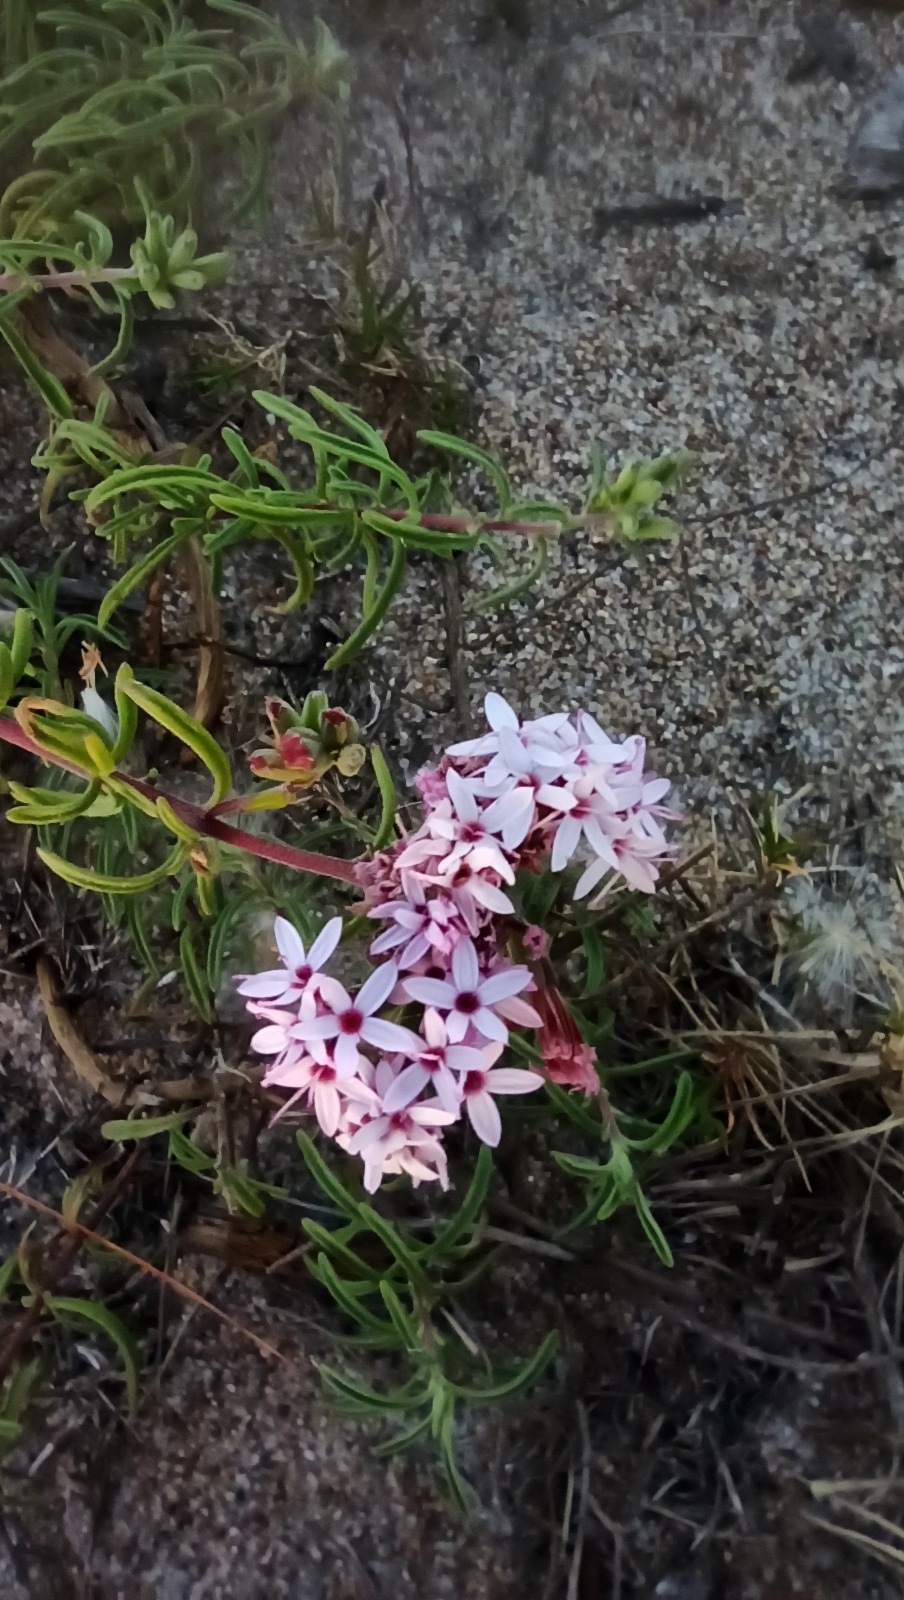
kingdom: Plantae
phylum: Tracheophyta
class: Magnoliopsida
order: Asterales
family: Asteraceae
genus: Stevia
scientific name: Stevia satureifolia
